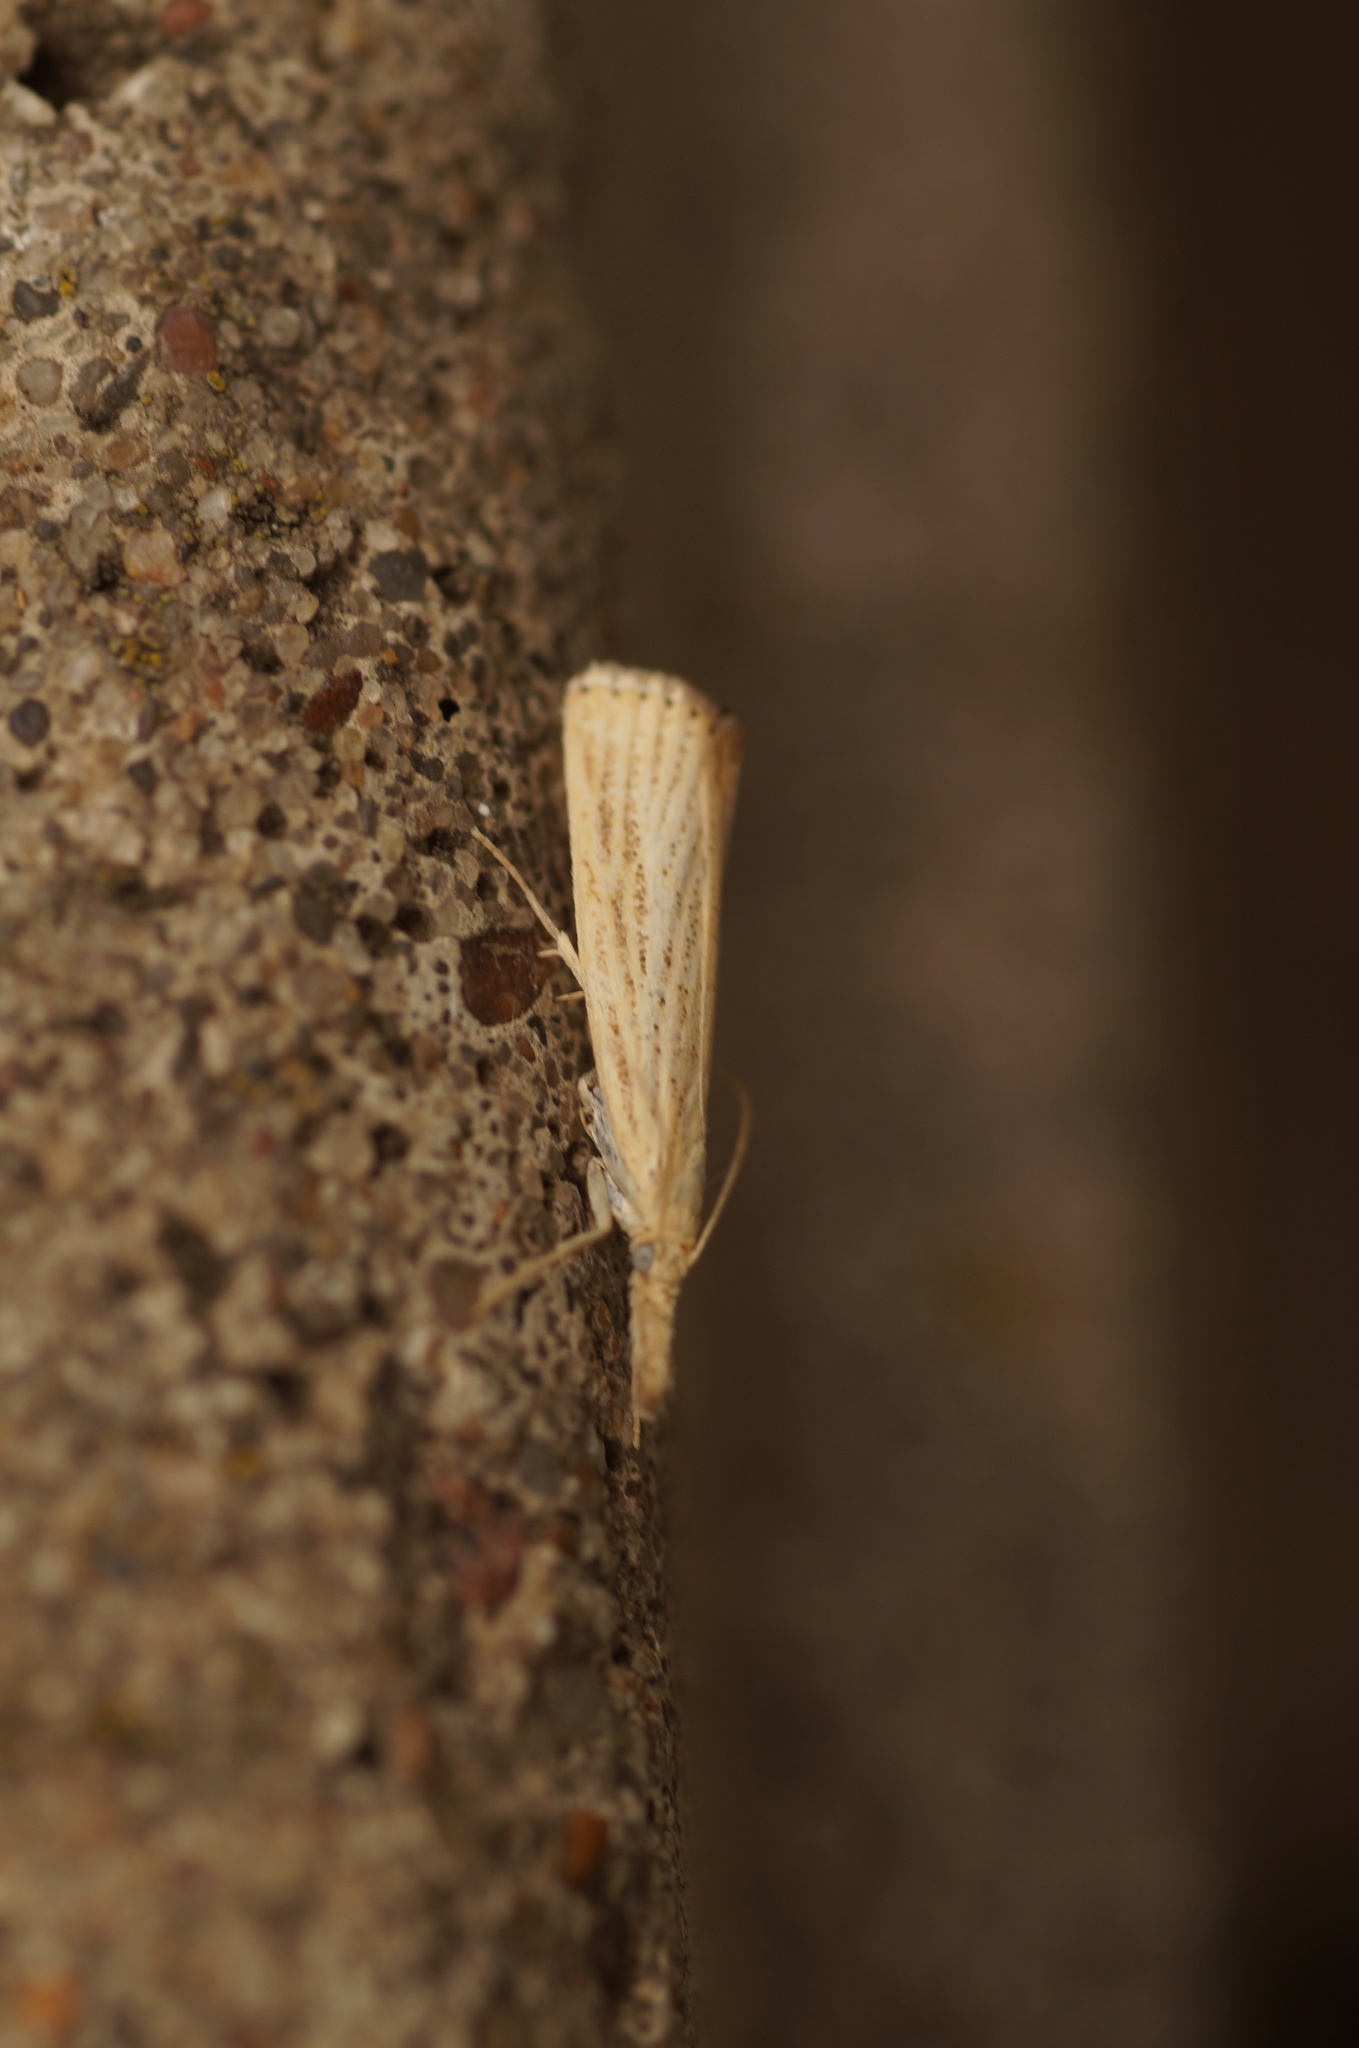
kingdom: Animalia
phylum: Arthropoda
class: Insecta
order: Lepidoptera
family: Crambidae
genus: Agriphila
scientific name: Agriphila straminella
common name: Straw grass-veneer
